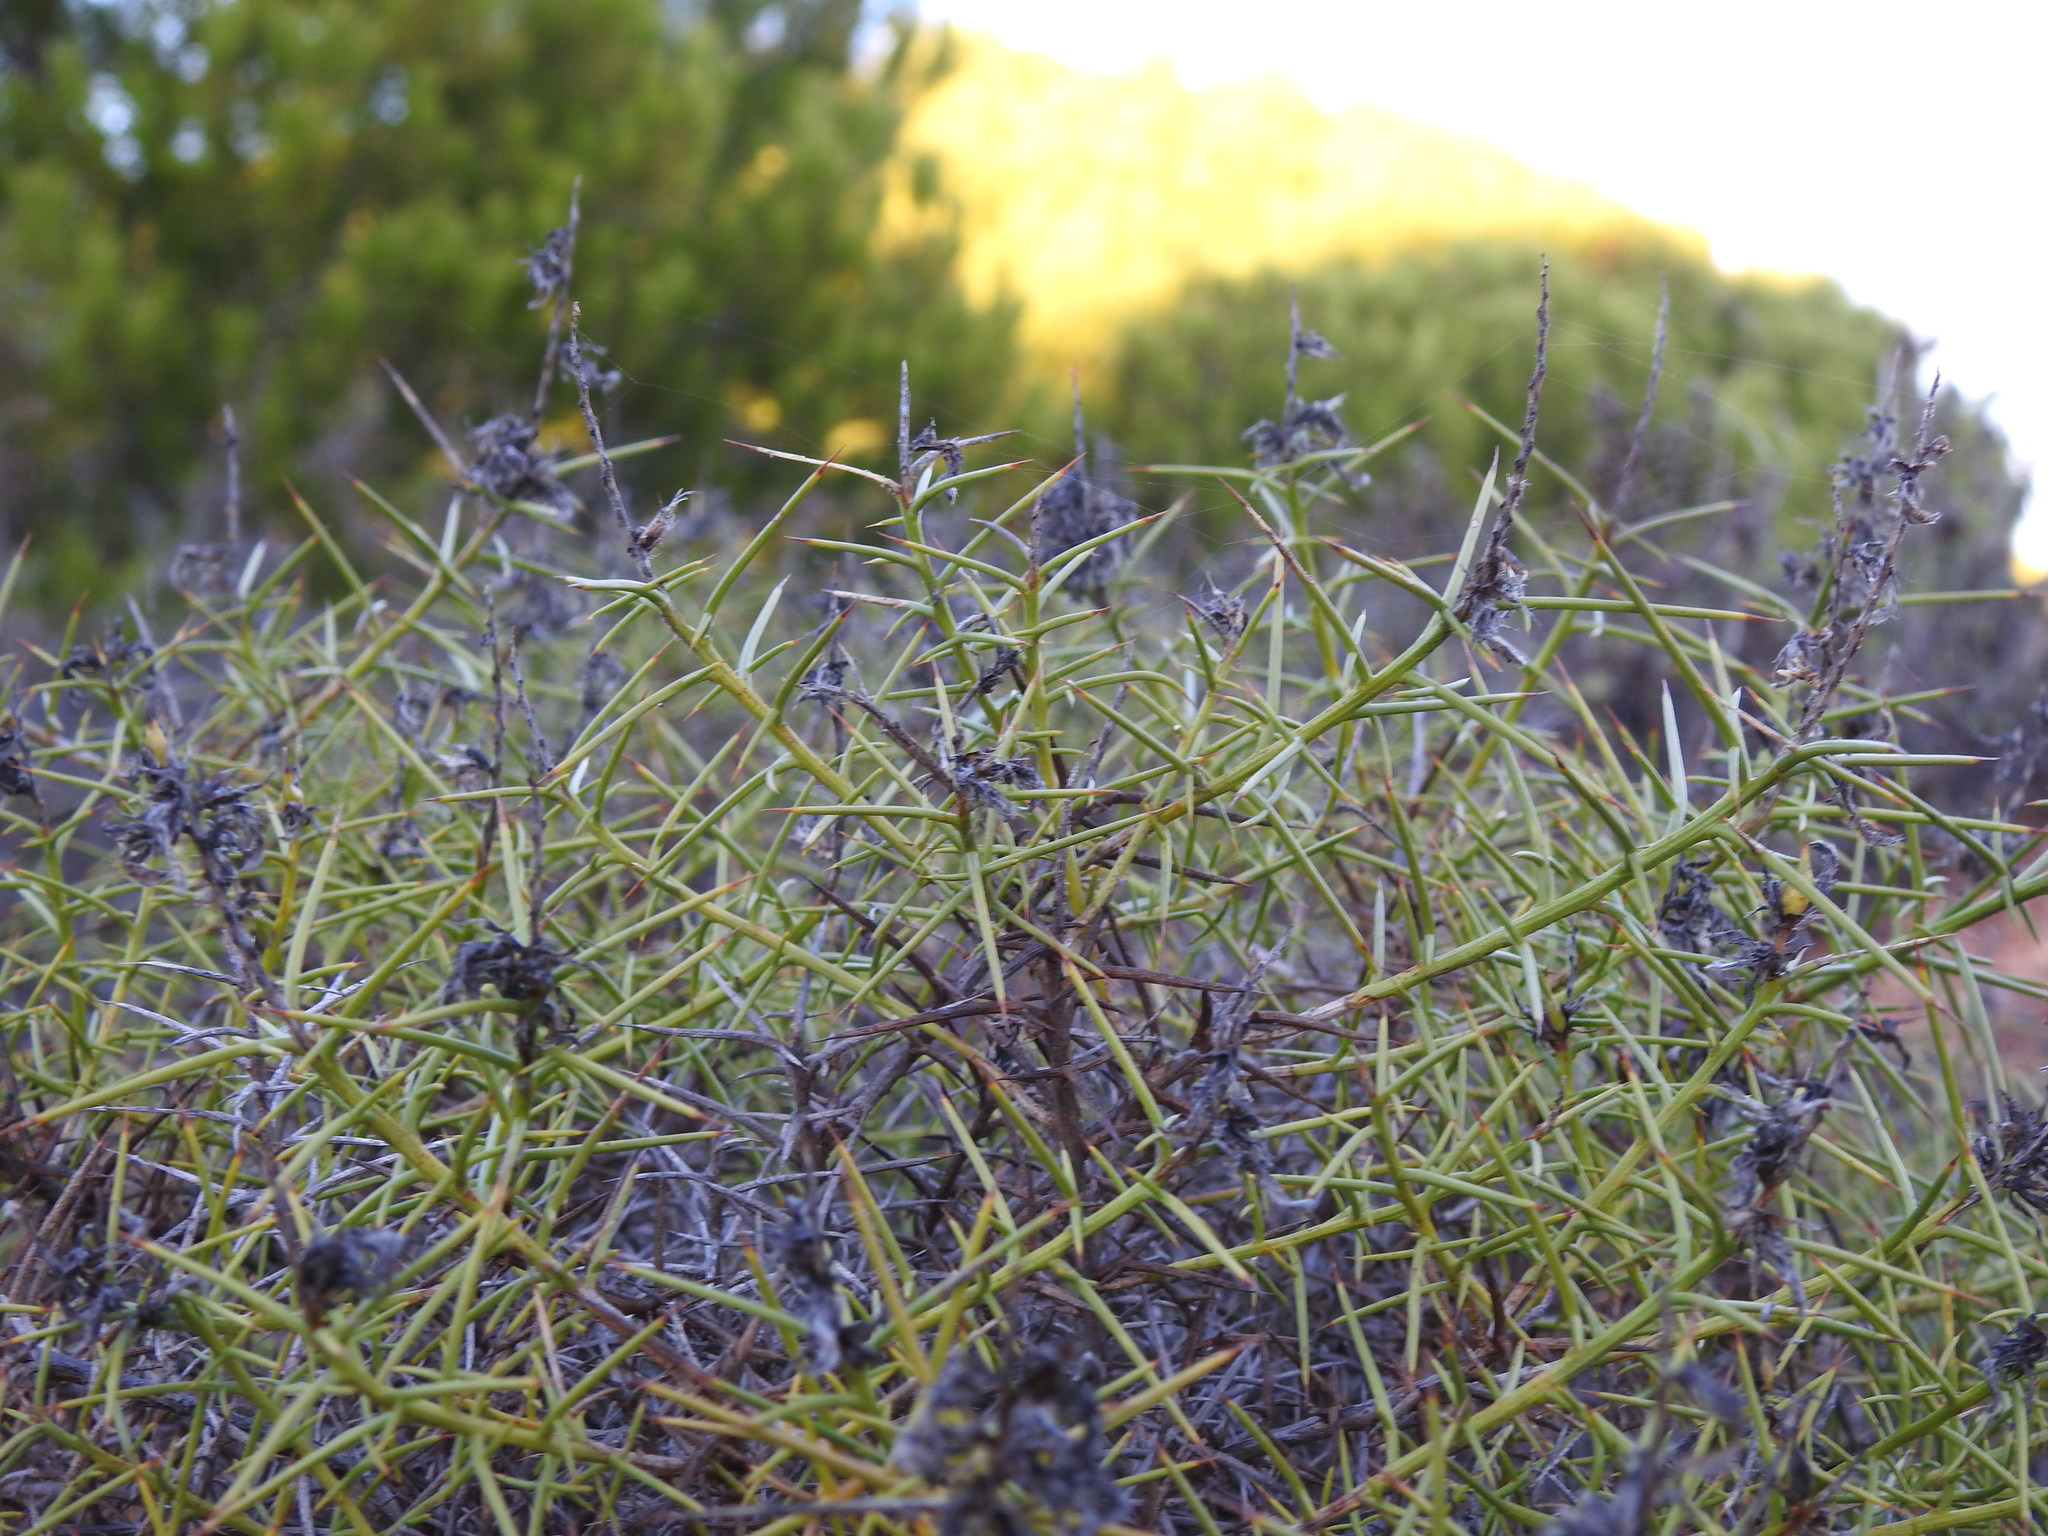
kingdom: Plantae
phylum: Tracheophyta
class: Magnoliopsida
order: Fabales
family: Fabaceae
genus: Genista
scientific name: Genista hirsuta
